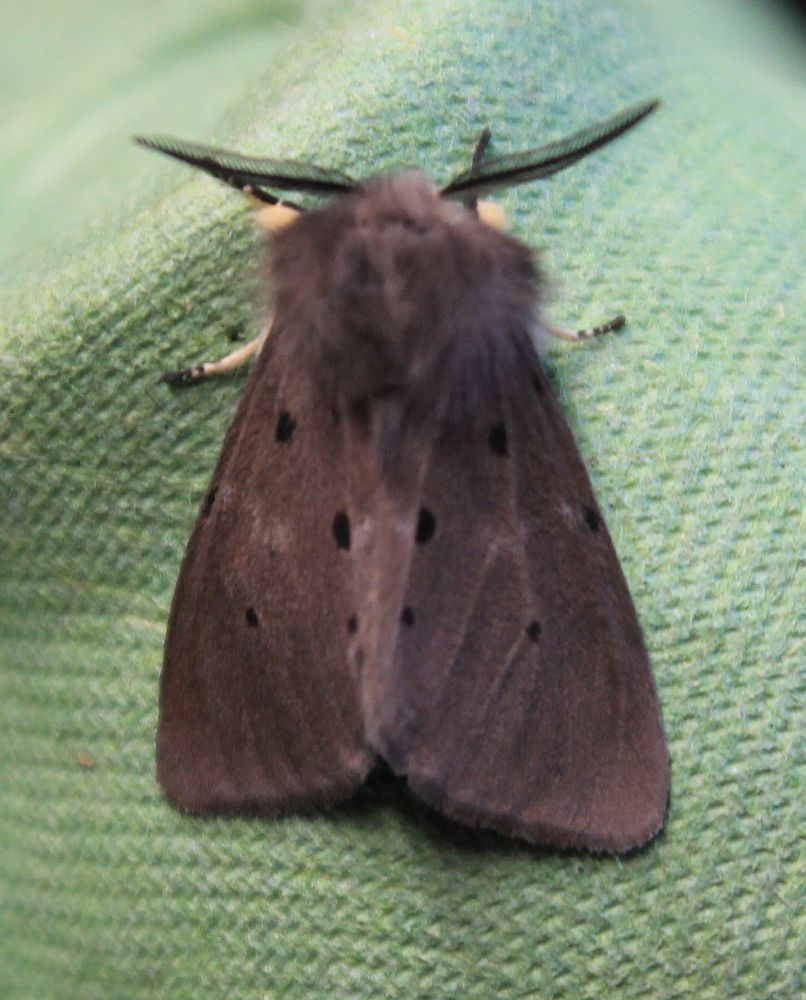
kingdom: Animalia
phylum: Arthropoda
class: Insecta
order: Lepidoptera
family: Erebidae
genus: Diaphora
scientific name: Diaphora mendica
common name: Muslin moth
